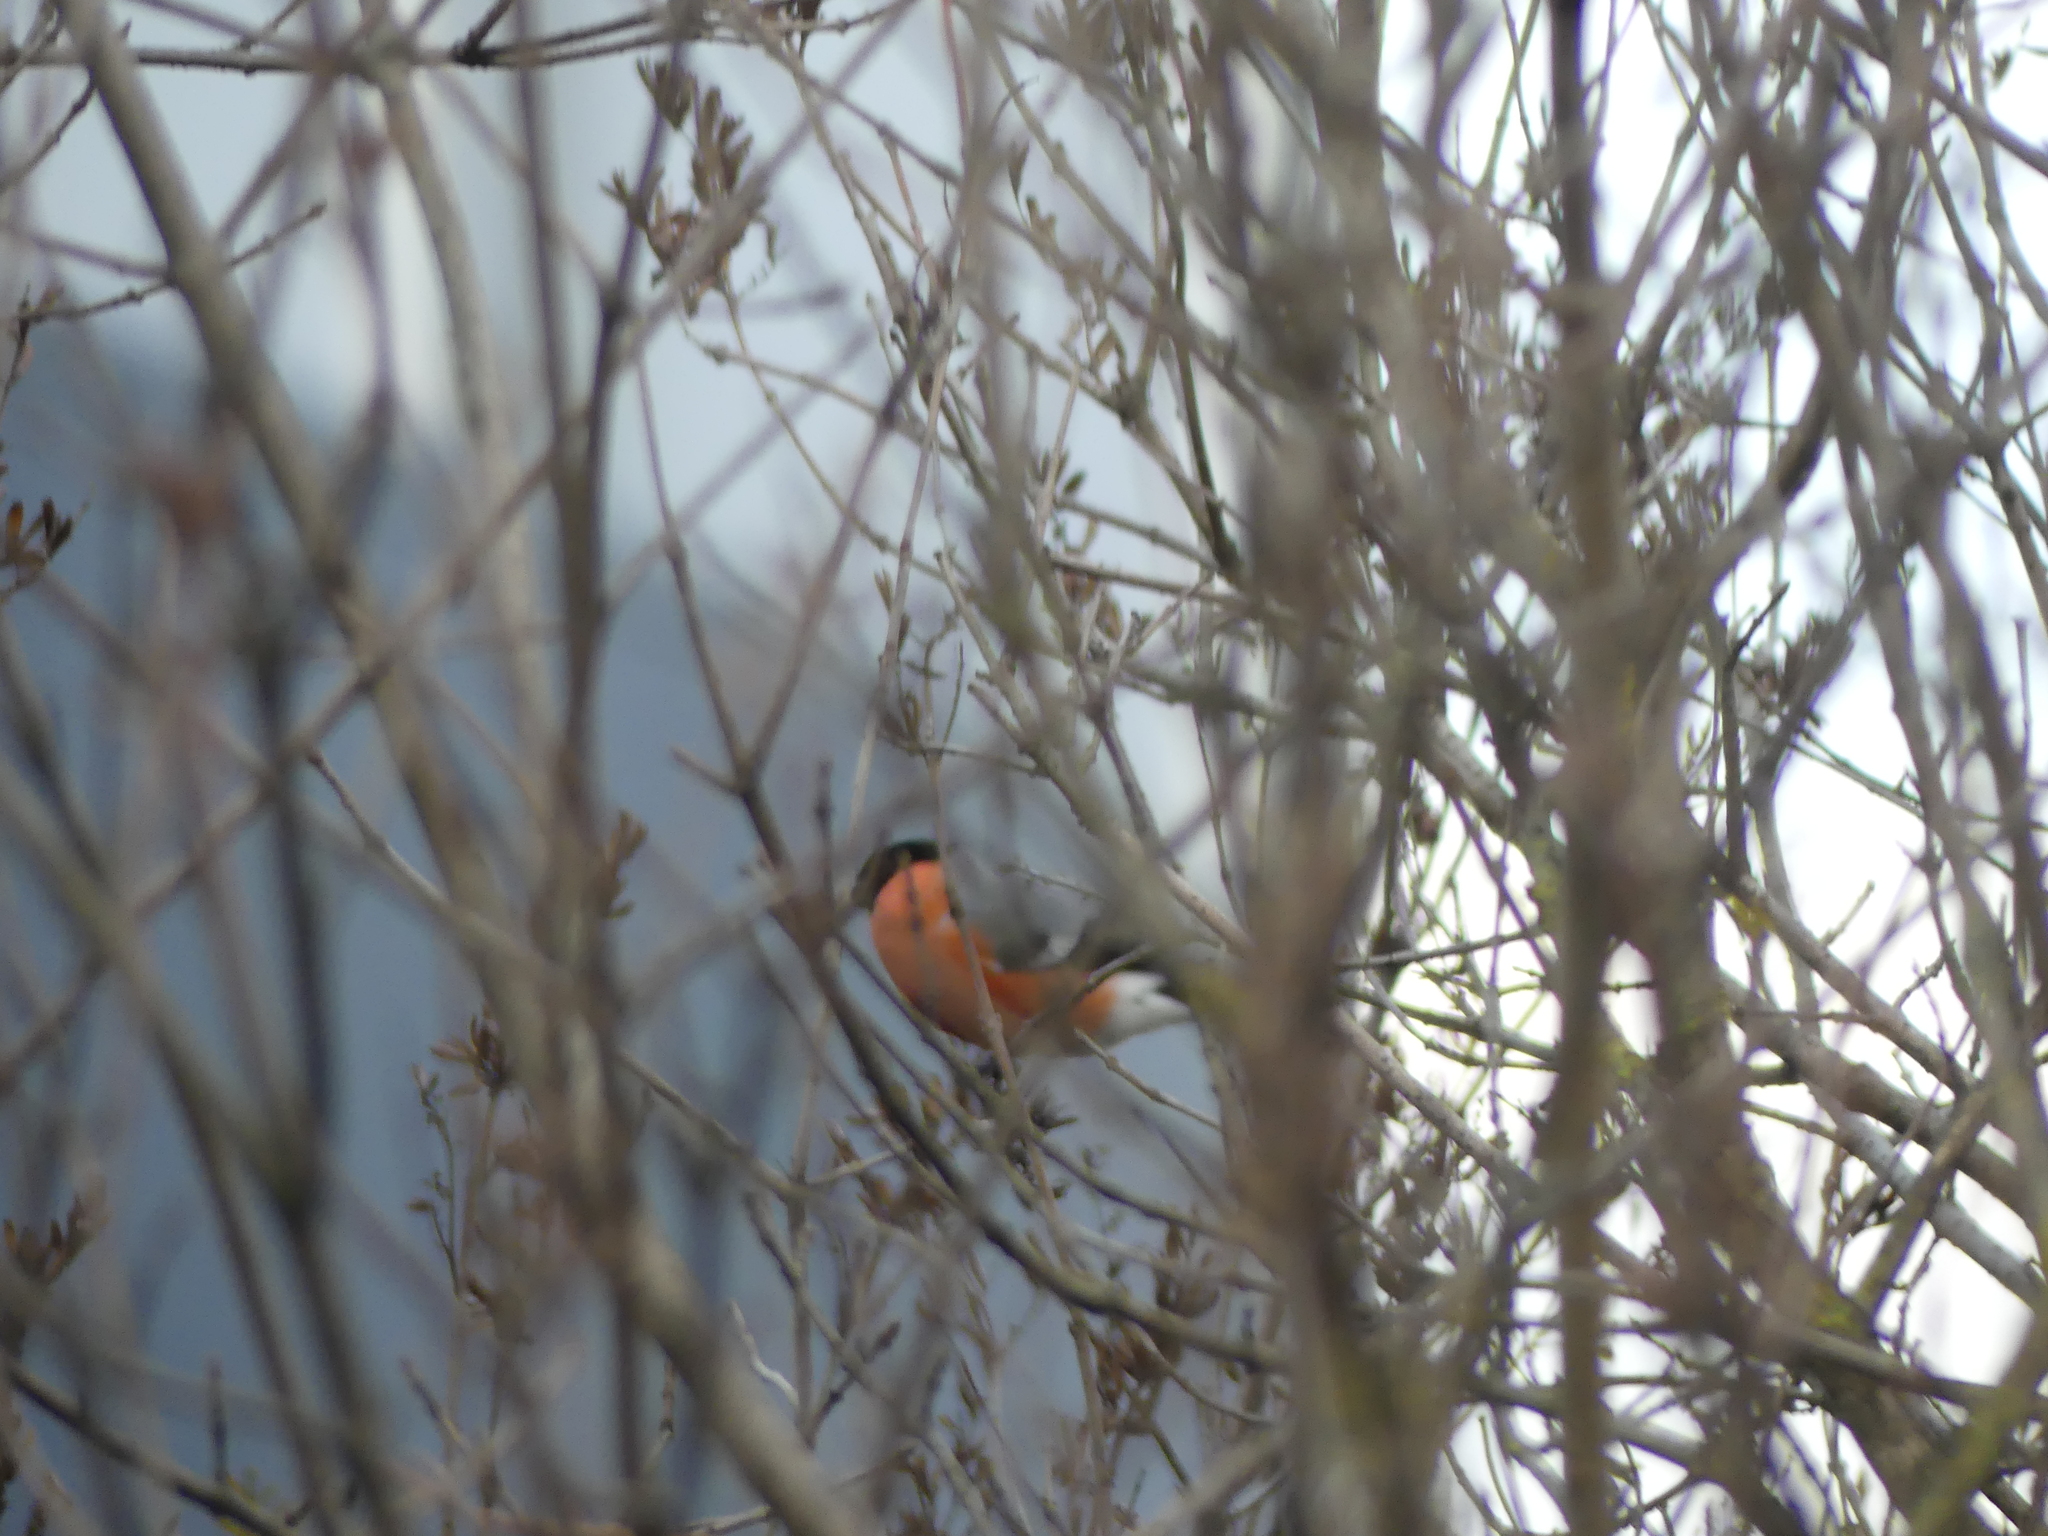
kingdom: Animalia
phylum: Chordata
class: Aves
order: Passeriformes
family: Fringillidae
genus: Pyrrhula
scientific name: Pyrrhula pyrrhula
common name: Eurasian bullfinch
